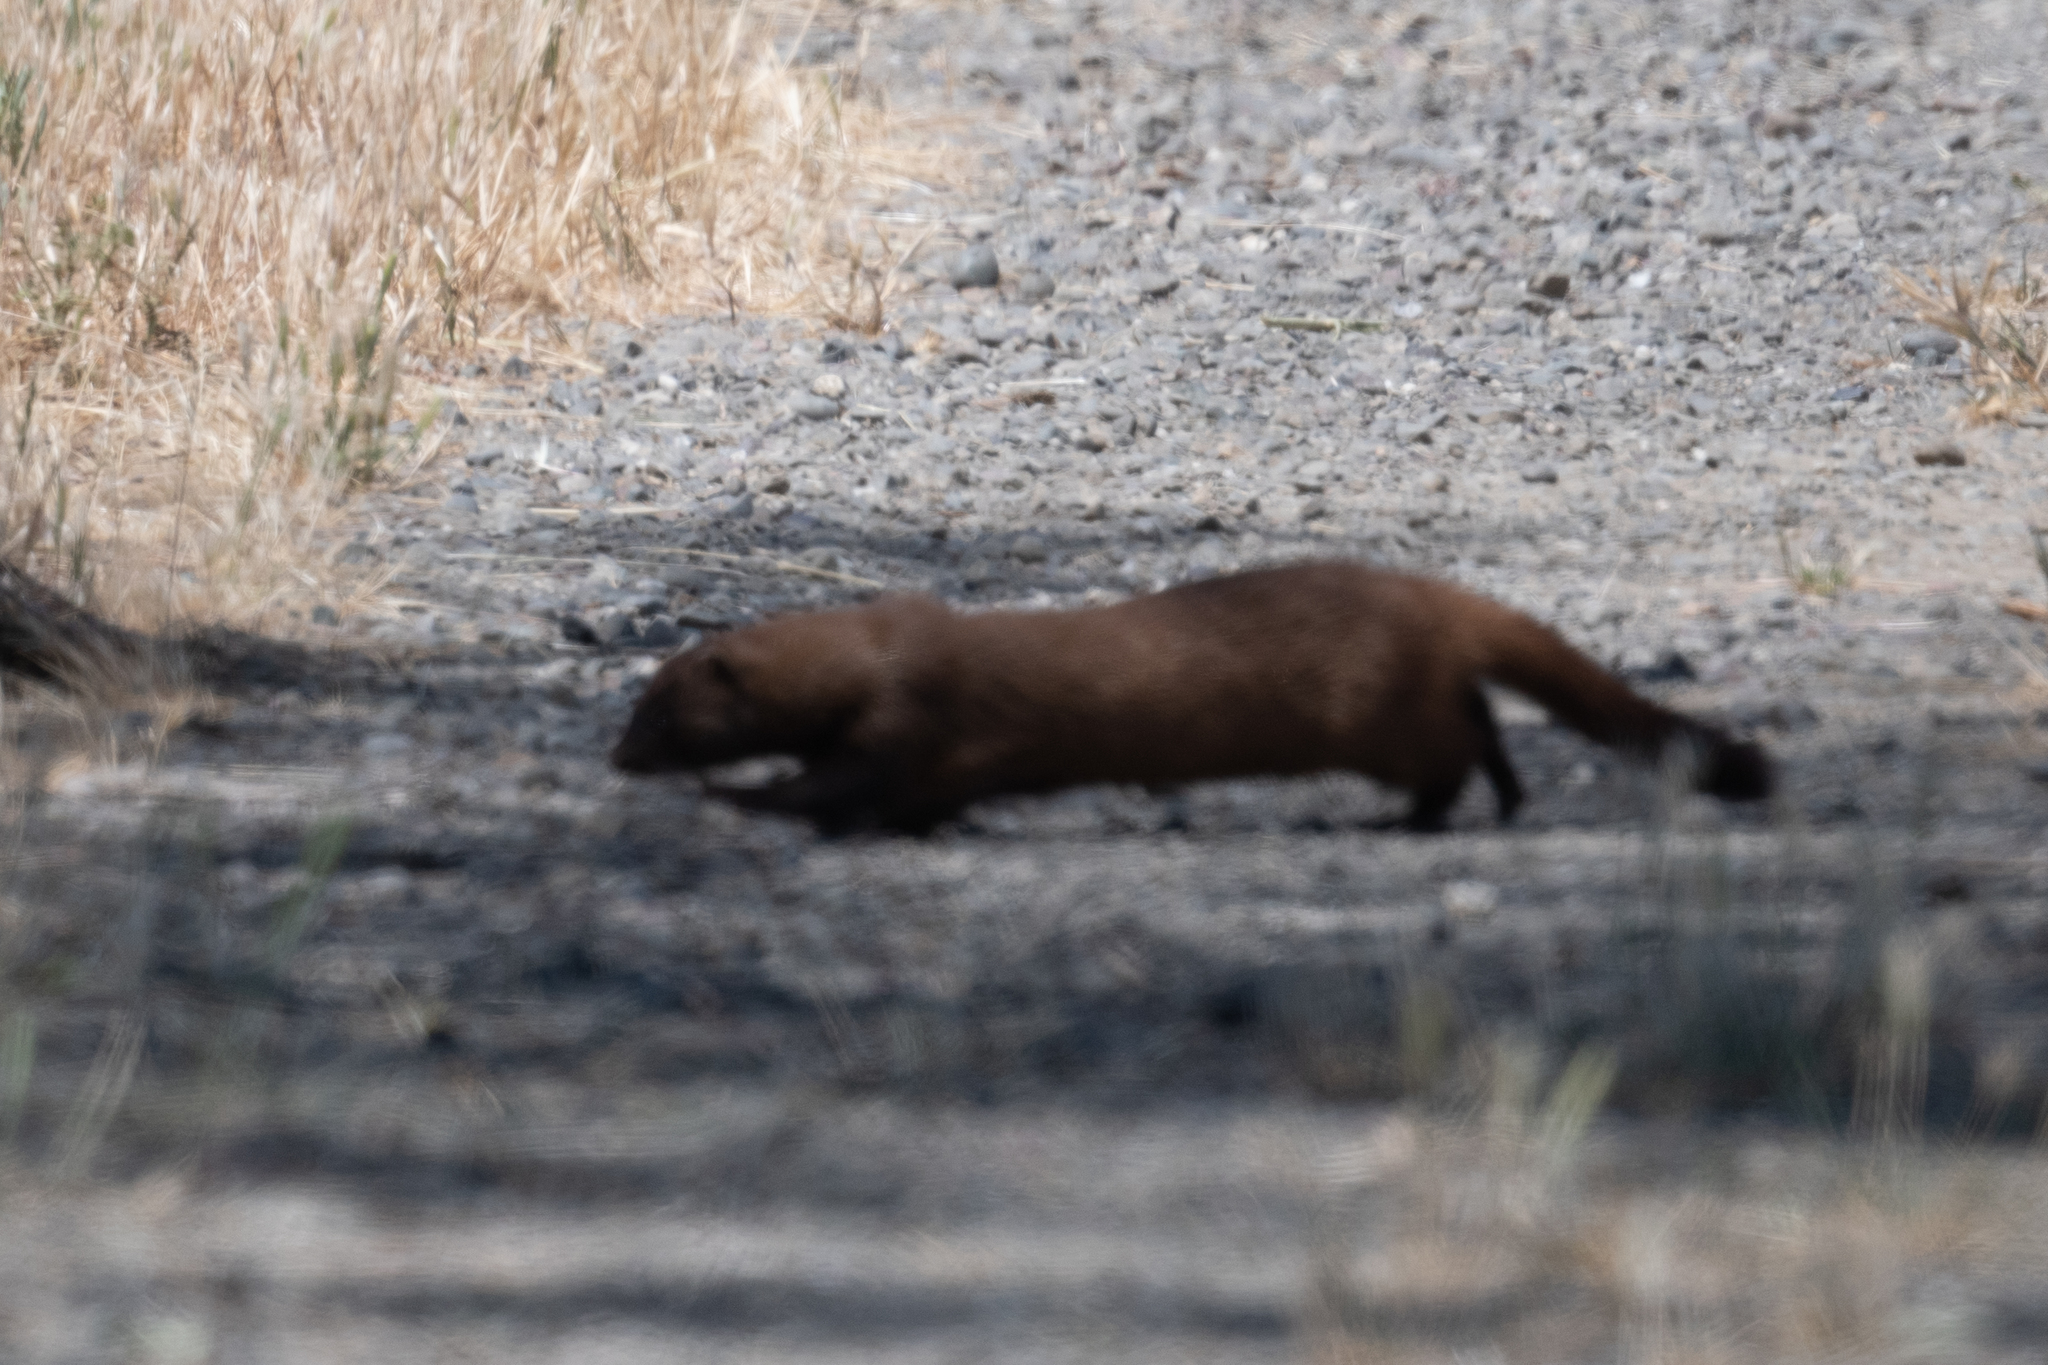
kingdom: Animalia
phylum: Chordata
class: Mammalia
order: Carnivora
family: Mustelidae
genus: Mustela
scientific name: Mustela
